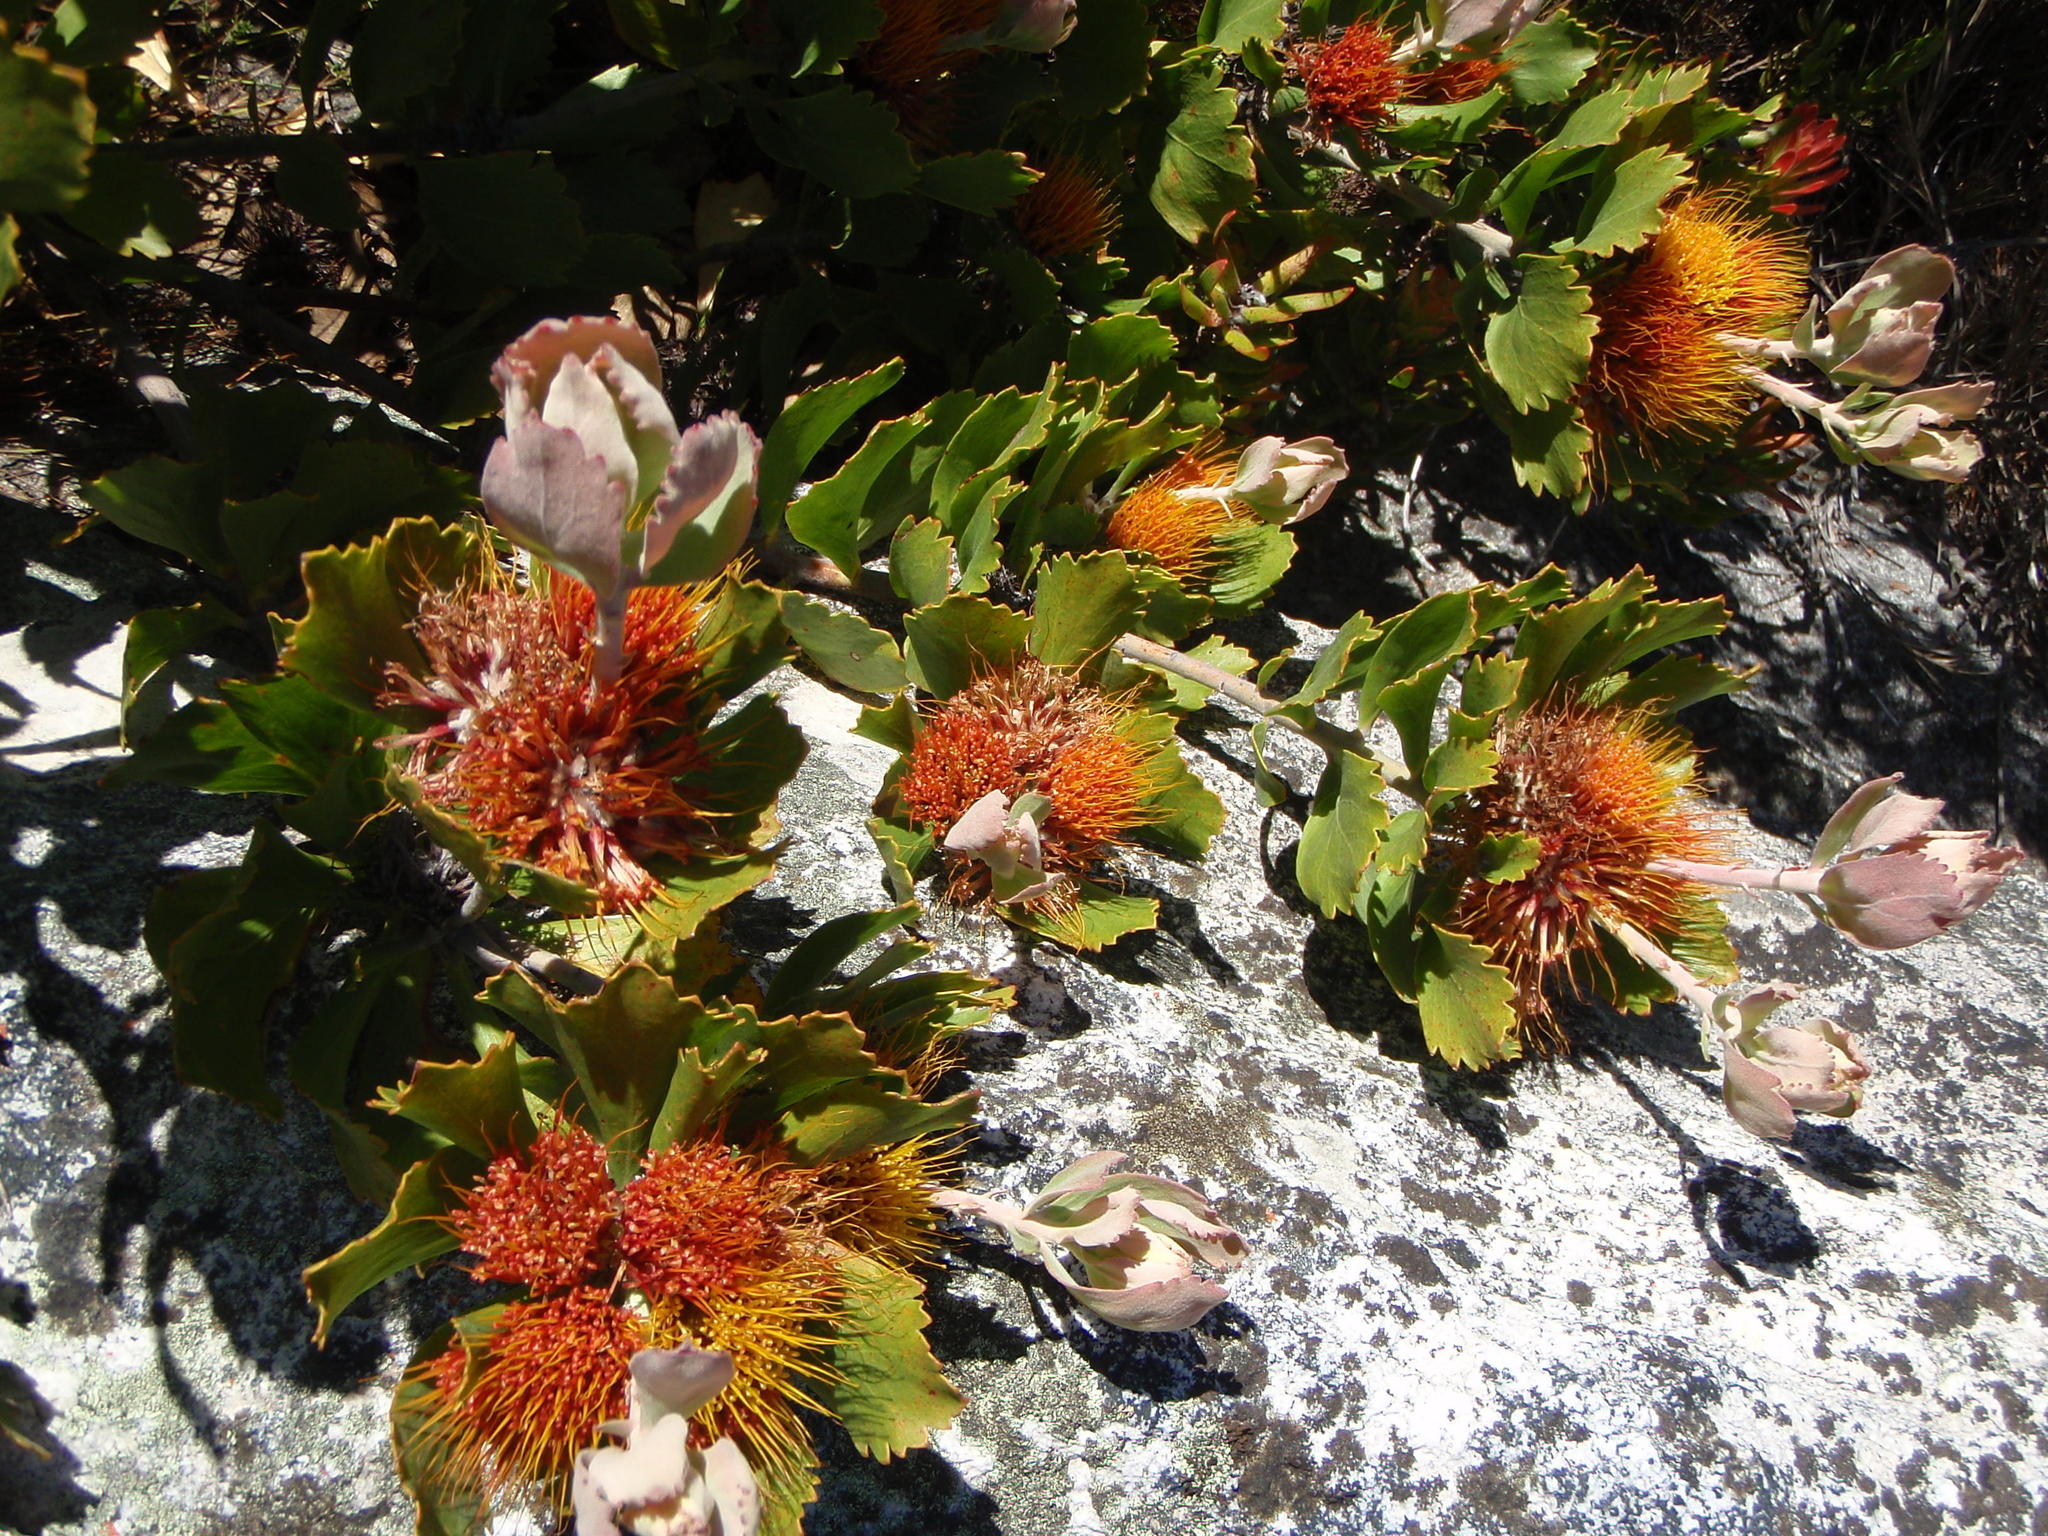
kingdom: Plantae
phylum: Tracheophyta
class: Magnoliopsida
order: Proteales
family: Proteaceae
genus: Leucospermum
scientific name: Leucospermum mundii
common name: Langeberg pincushion
